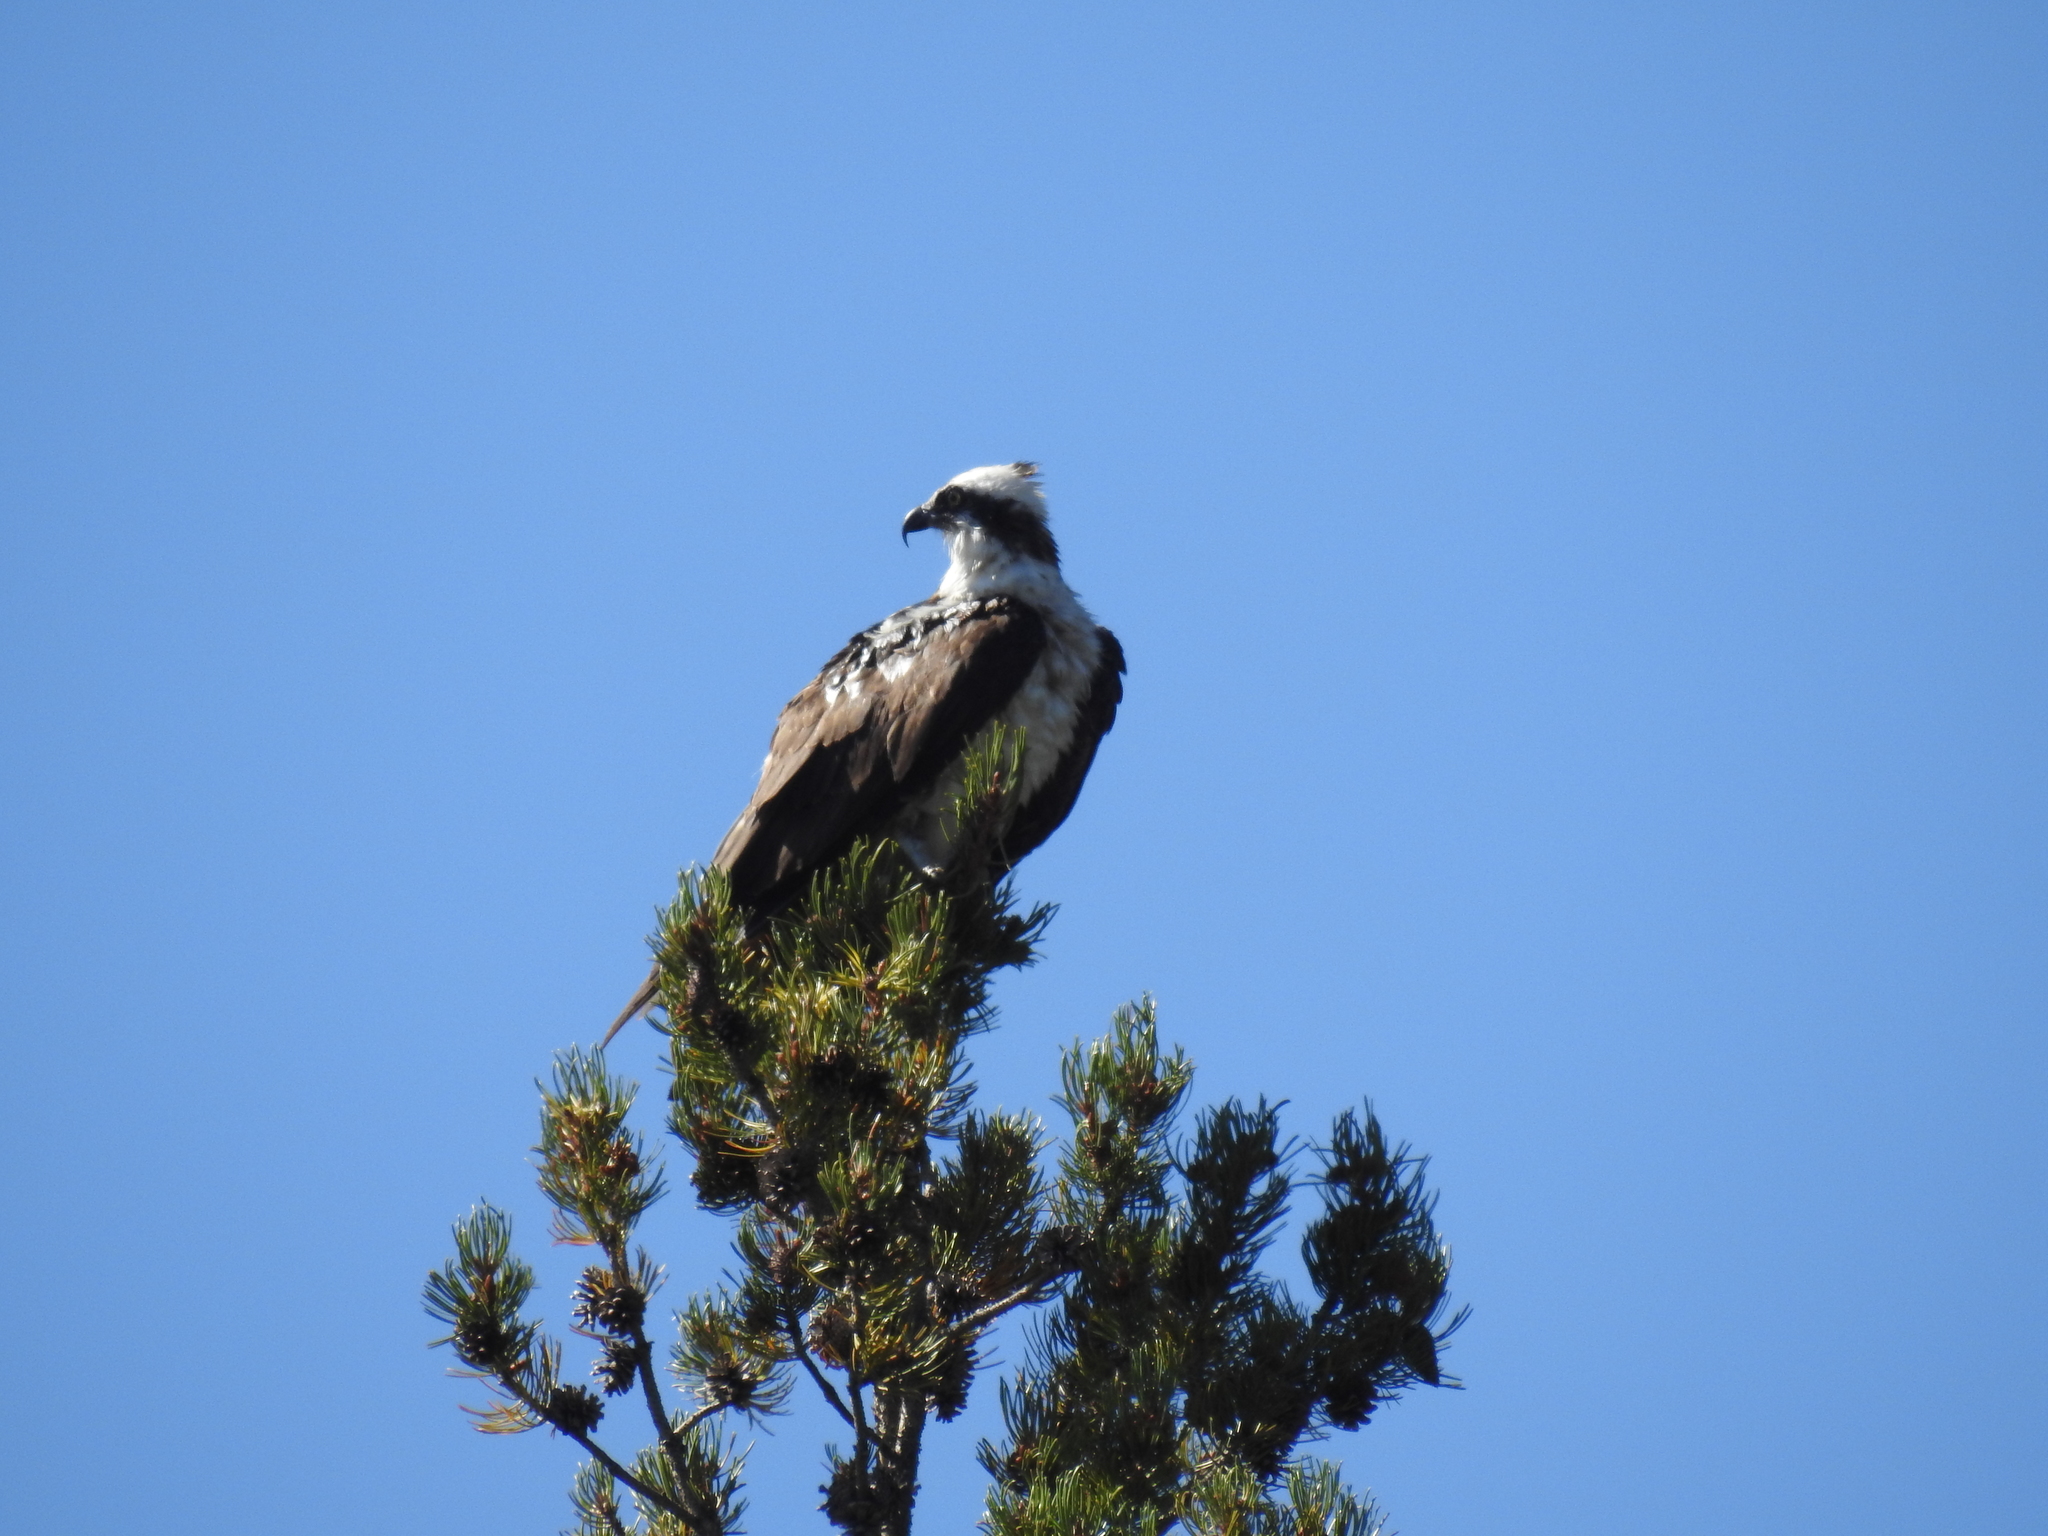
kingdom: Animalia
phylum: Chordata
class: Aves
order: Accipitriformes
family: Pandionidae
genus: Pandion
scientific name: Pandion haliaetus
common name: Osprey
